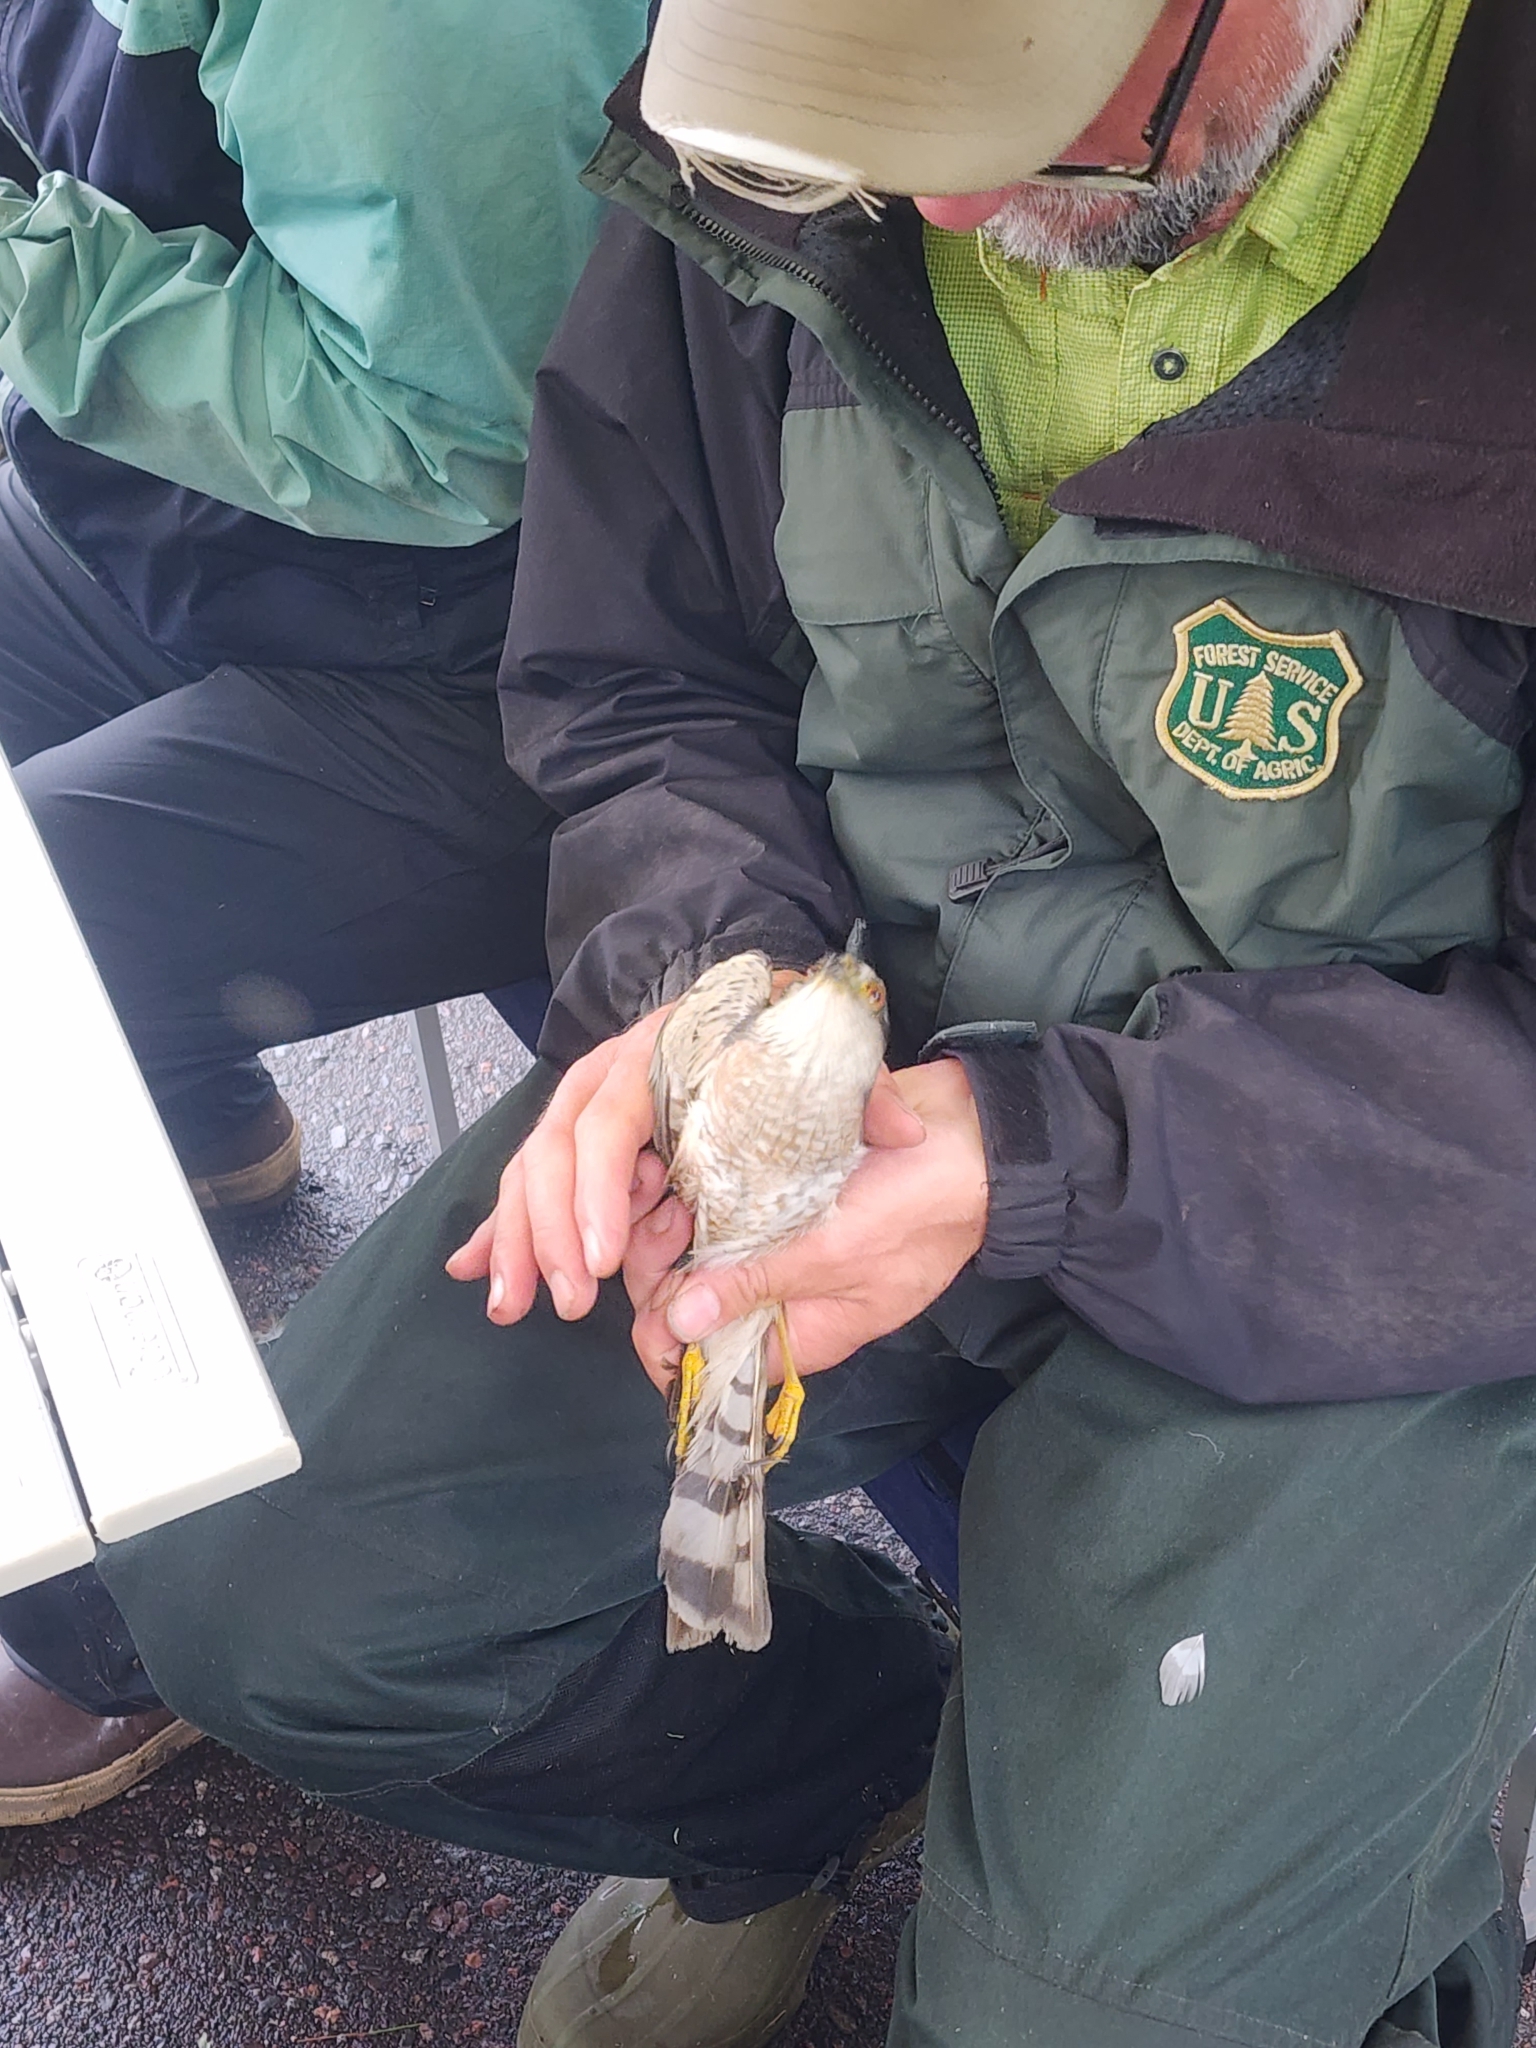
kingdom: Animalia
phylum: Chordata
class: Aves
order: Accipitriformes
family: Accipitridae
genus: Accipiter
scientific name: Accipiter striatus
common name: Sharp-shinned hawk
